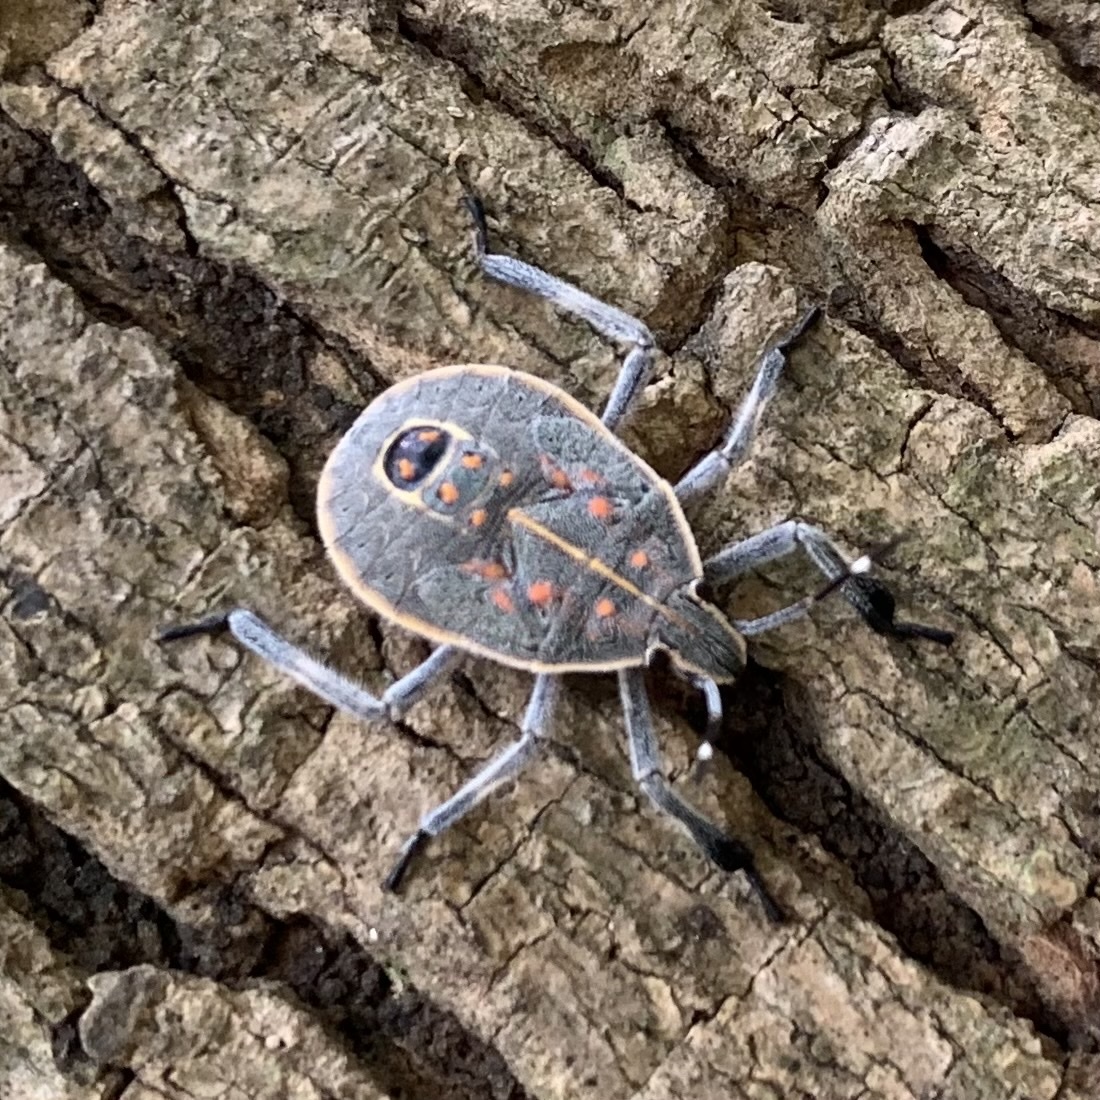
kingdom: Animalia
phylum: Arthropoda
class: Insecta
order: Hemiptera
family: Pentatomidae
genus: Erthesina
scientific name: Erthesina fullo
